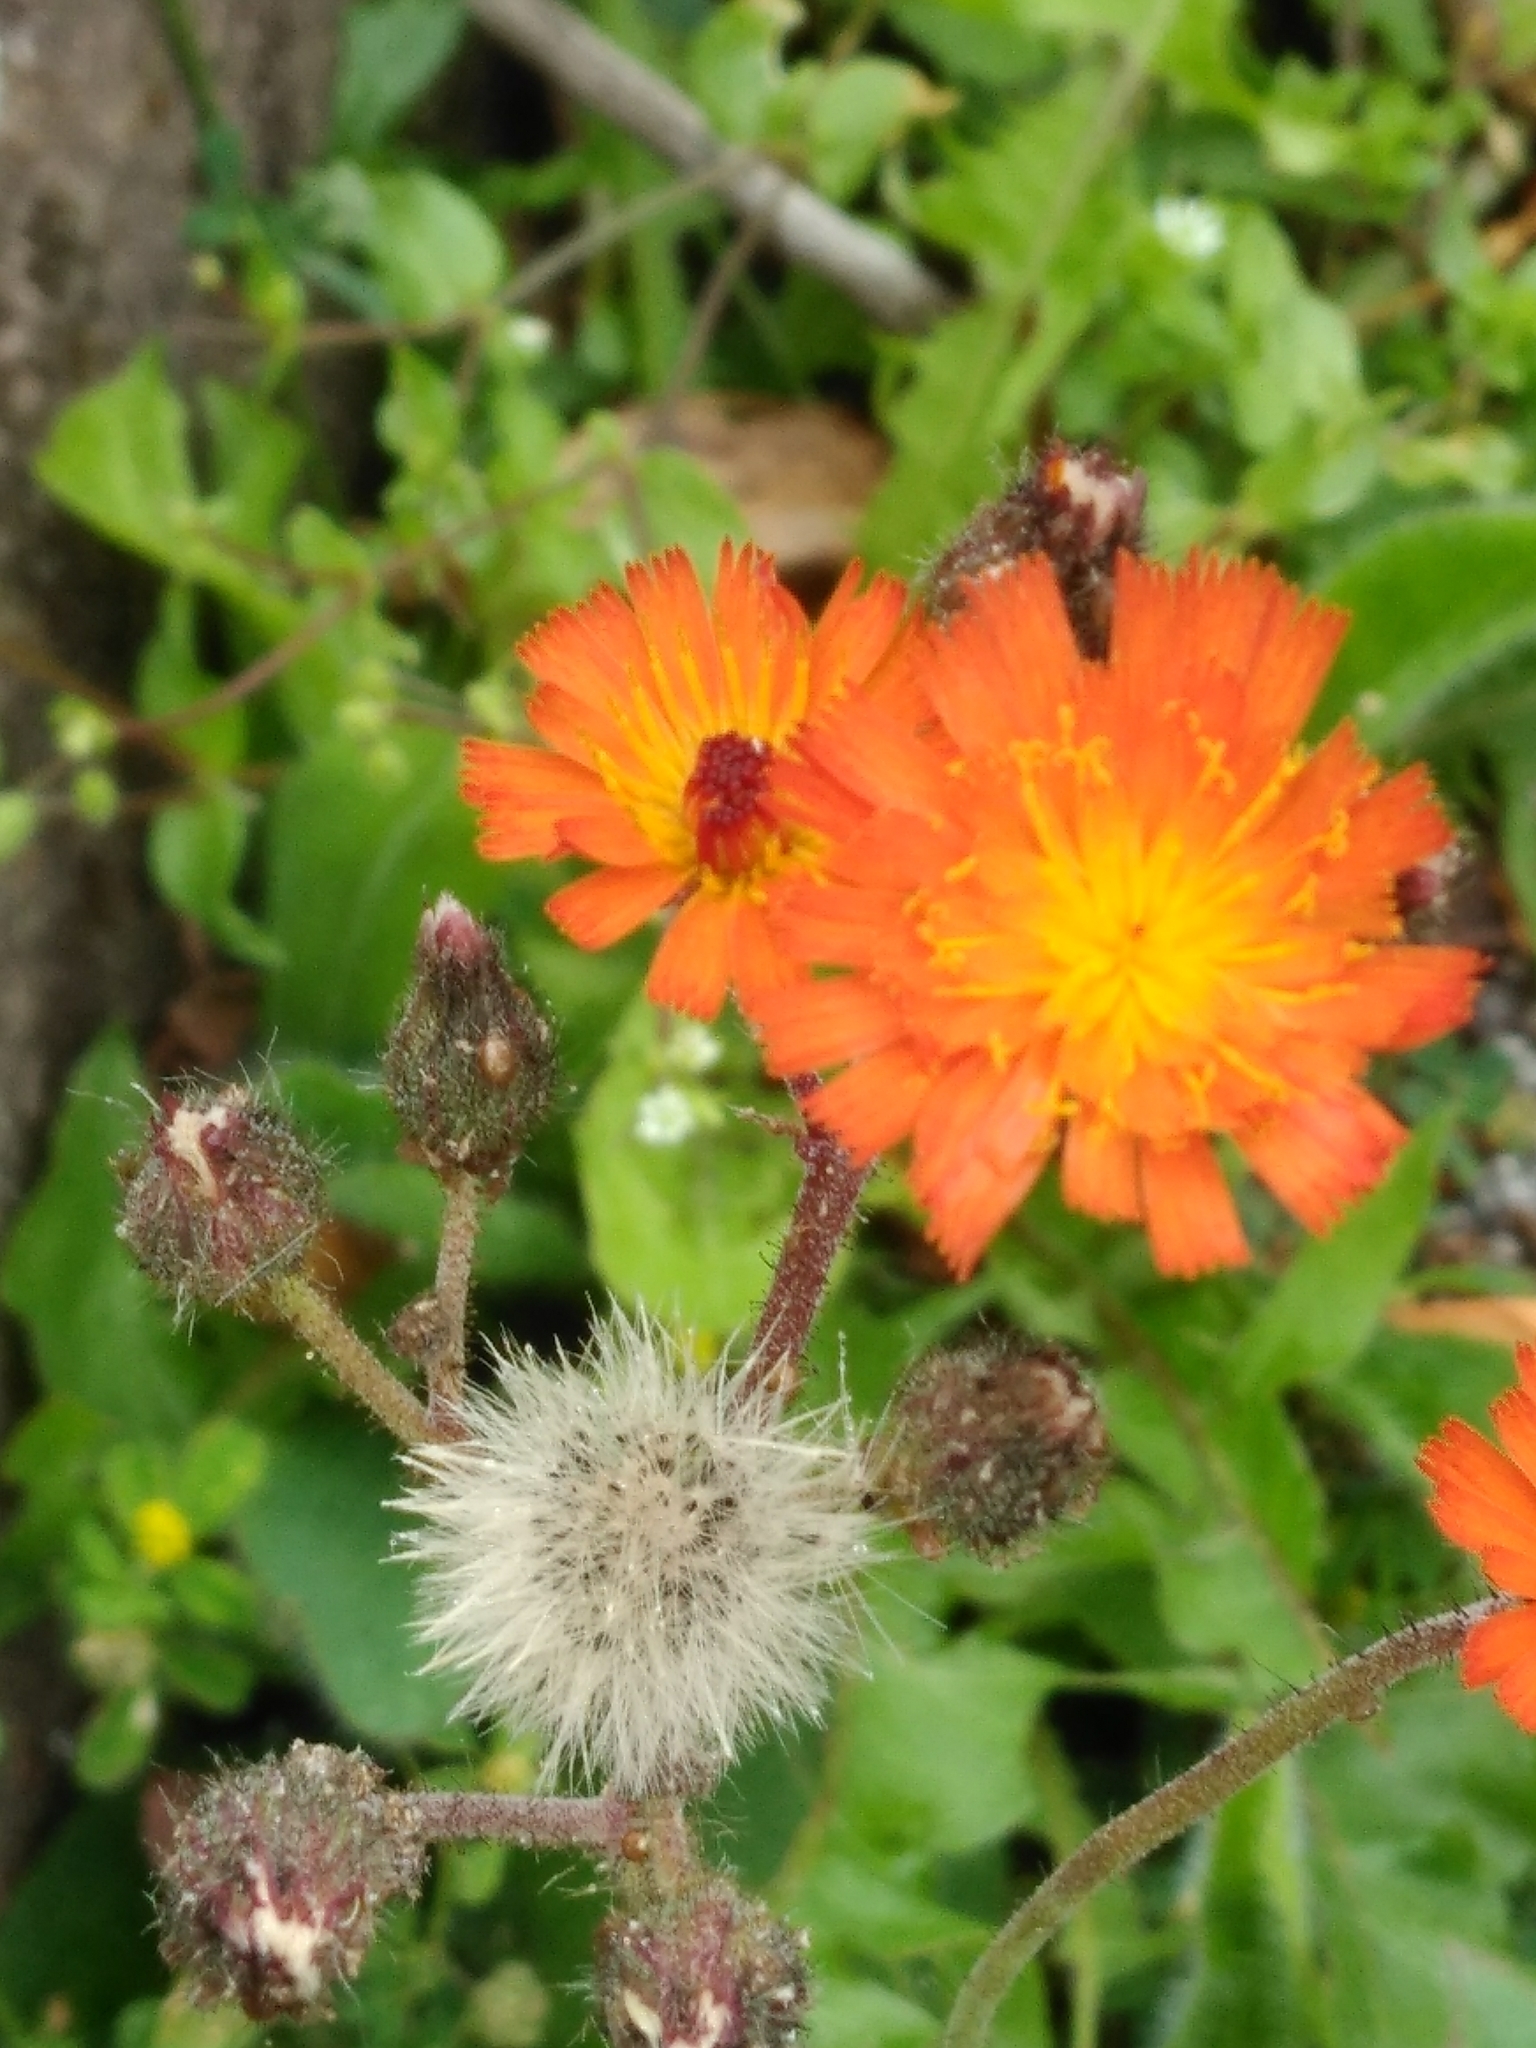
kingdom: Plantae
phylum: Tracheophyta
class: Magnoliopsida
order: Asterales
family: Asteraceae
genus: Pilosella
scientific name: Pilosella aurantiaca
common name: Fox-and-cubs
